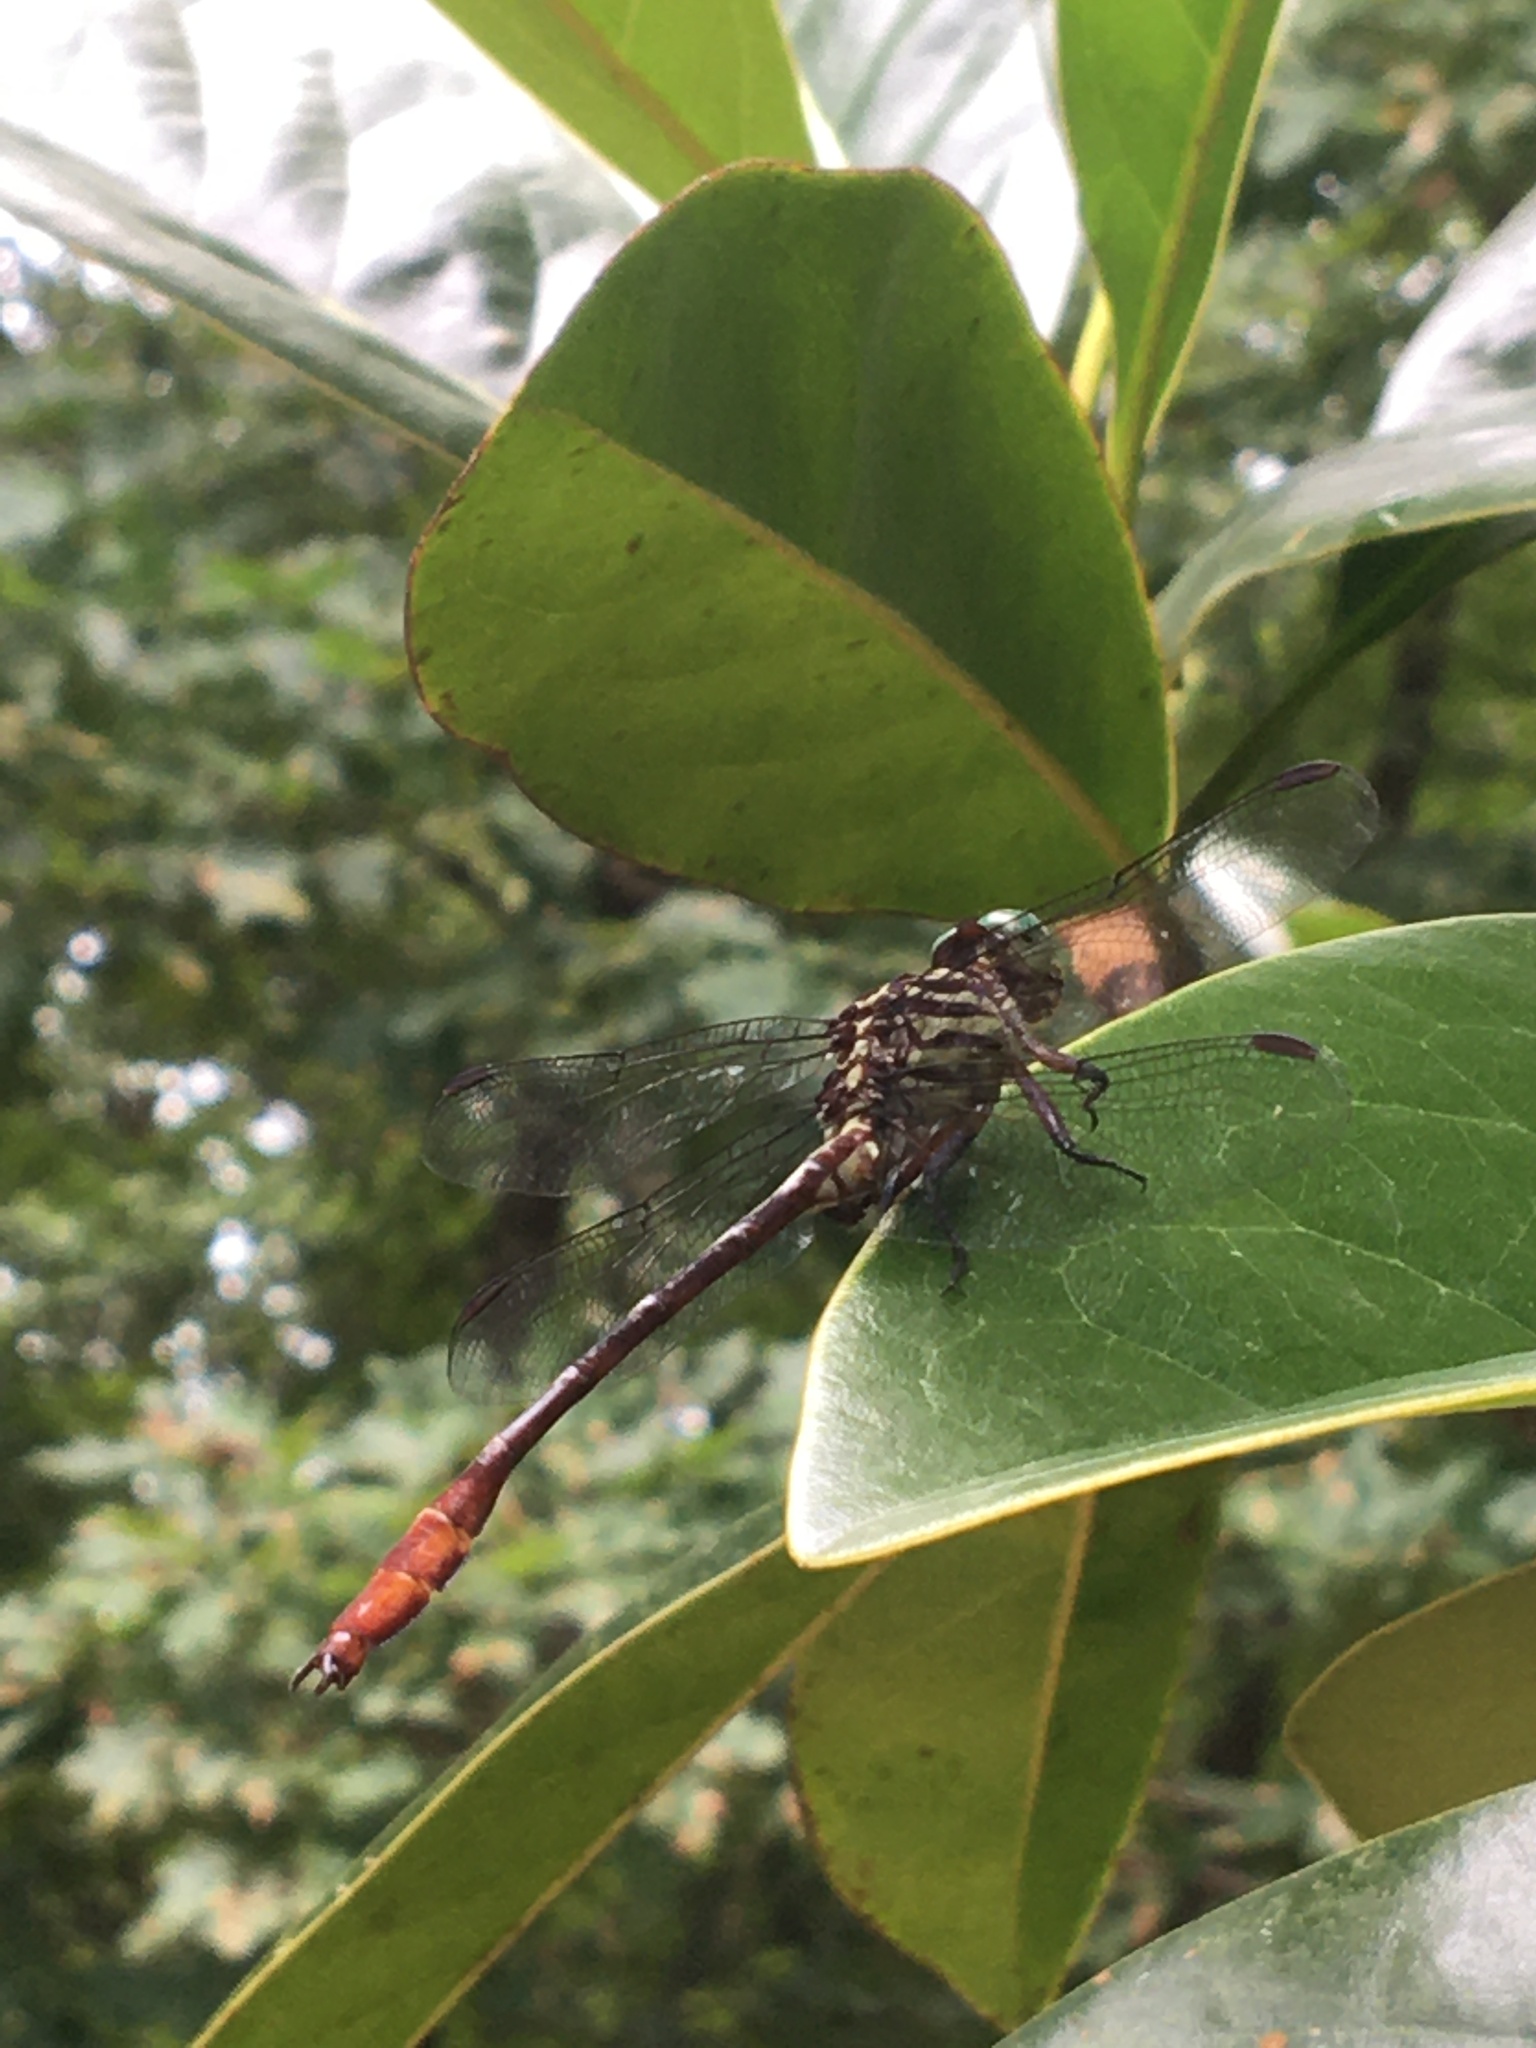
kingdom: Animalia
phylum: Arthropoda
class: Insecta
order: Odonata
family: Gomphidae
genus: Stylurus
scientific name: Stylurus plagiatus
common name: Russet-tipped clubtail
